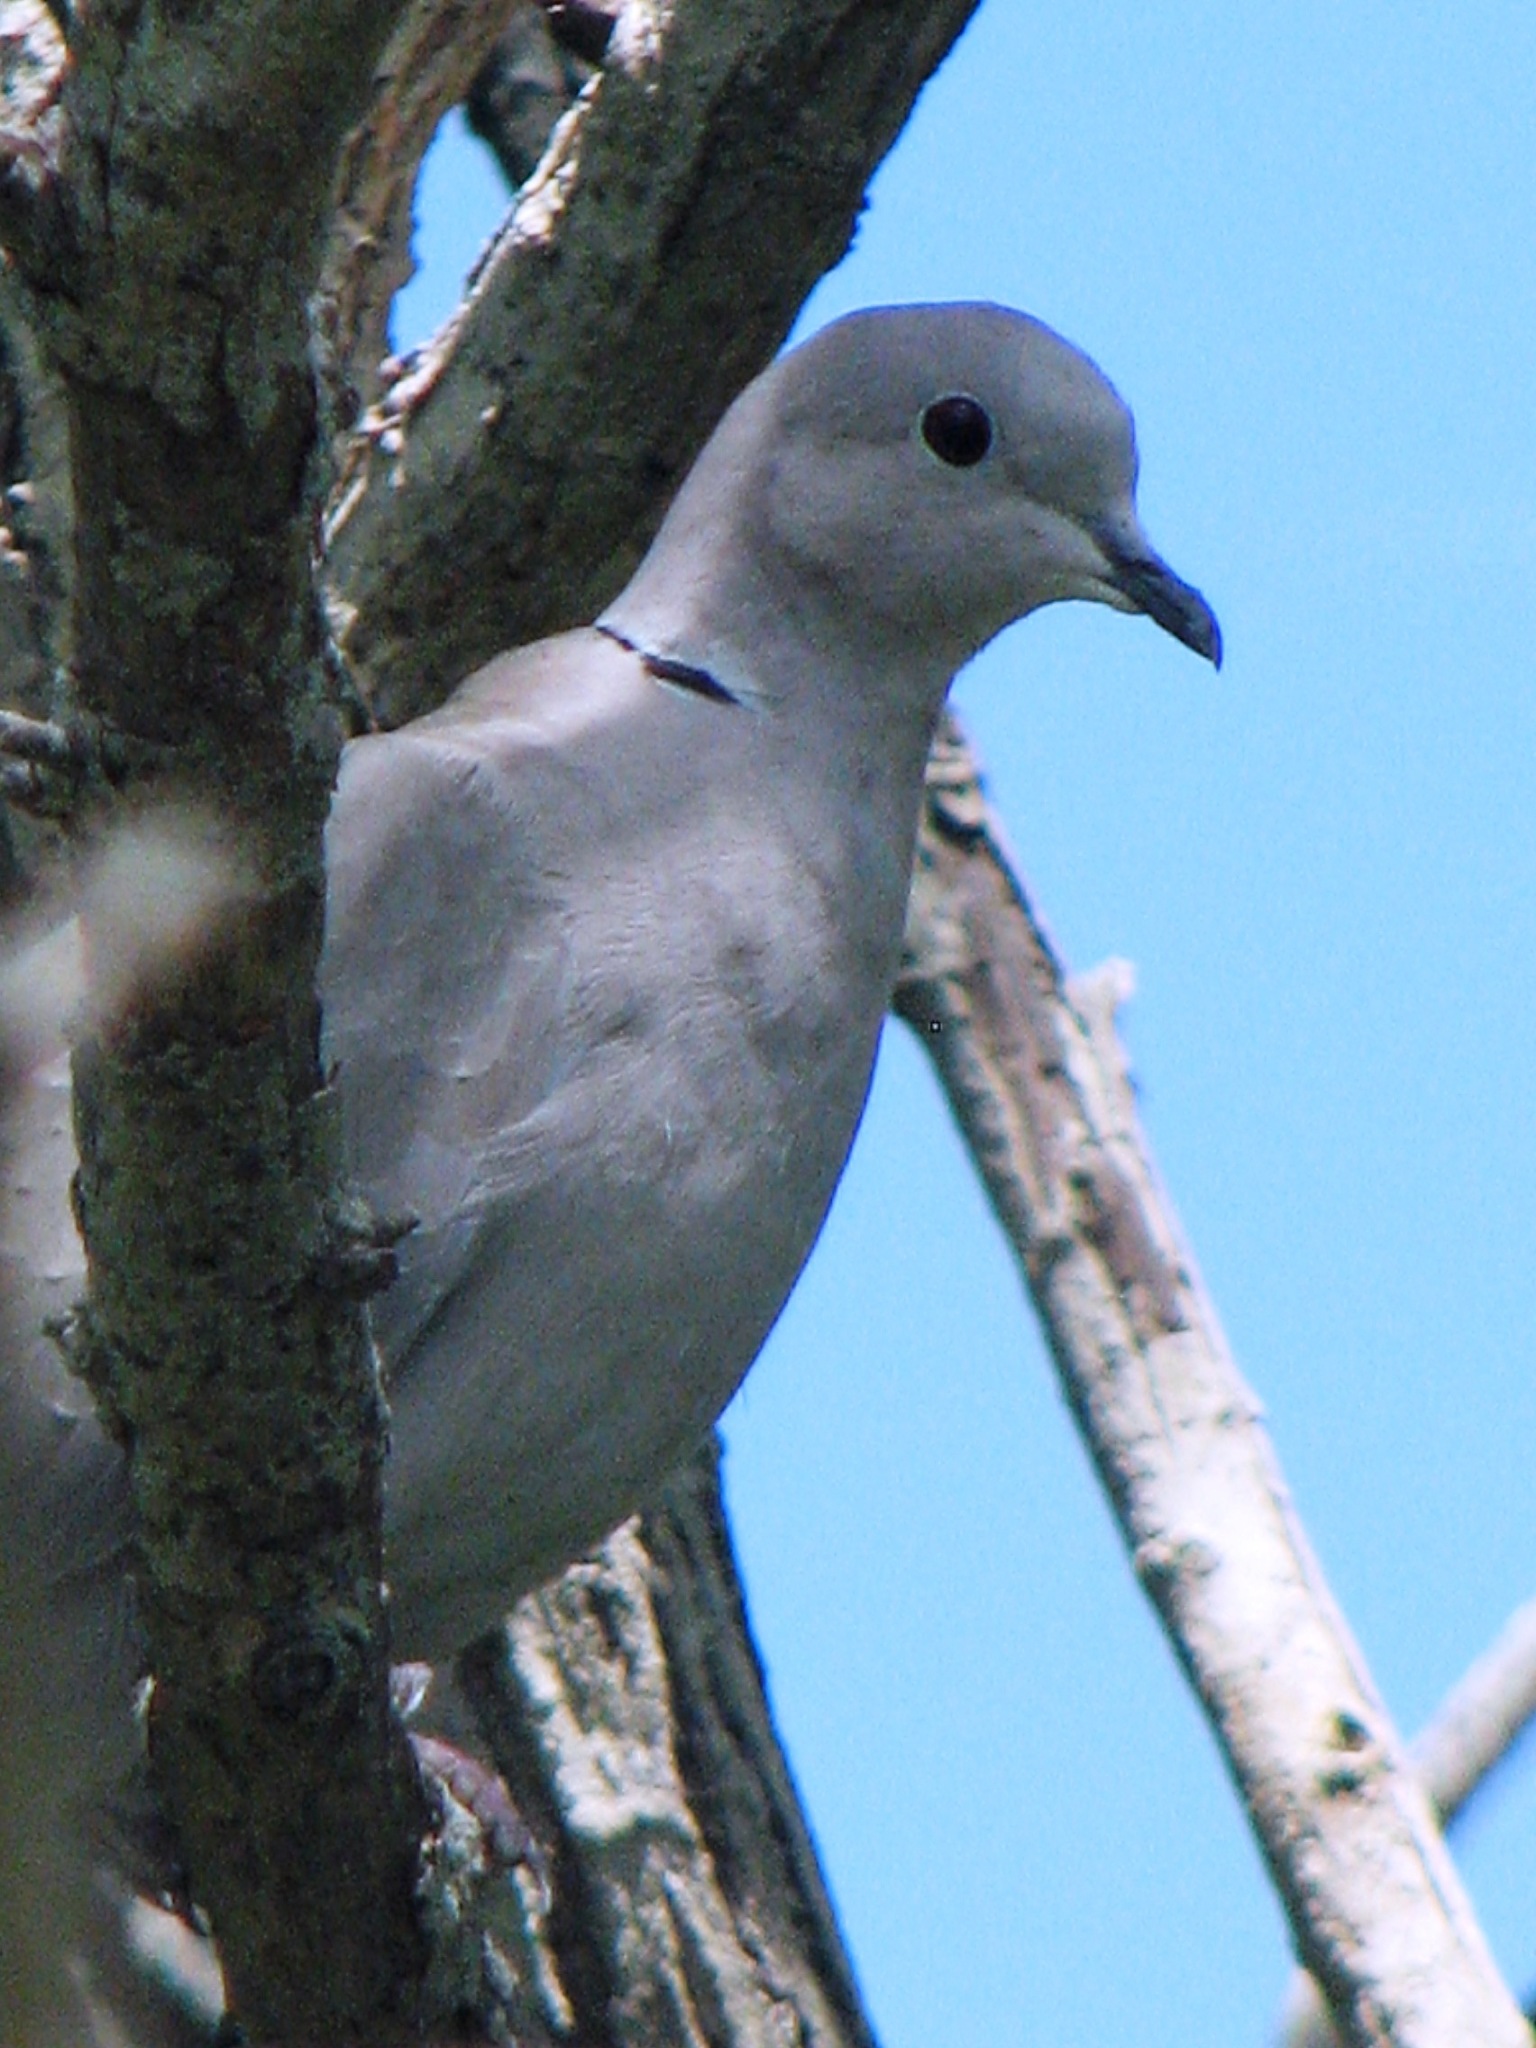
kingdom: Animalia
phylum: Chordata
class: Aves
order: Columbiformes
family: Columbidae
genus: Streptopelia
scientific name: Streptopelia decaocto
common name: Eurasian collared dove
